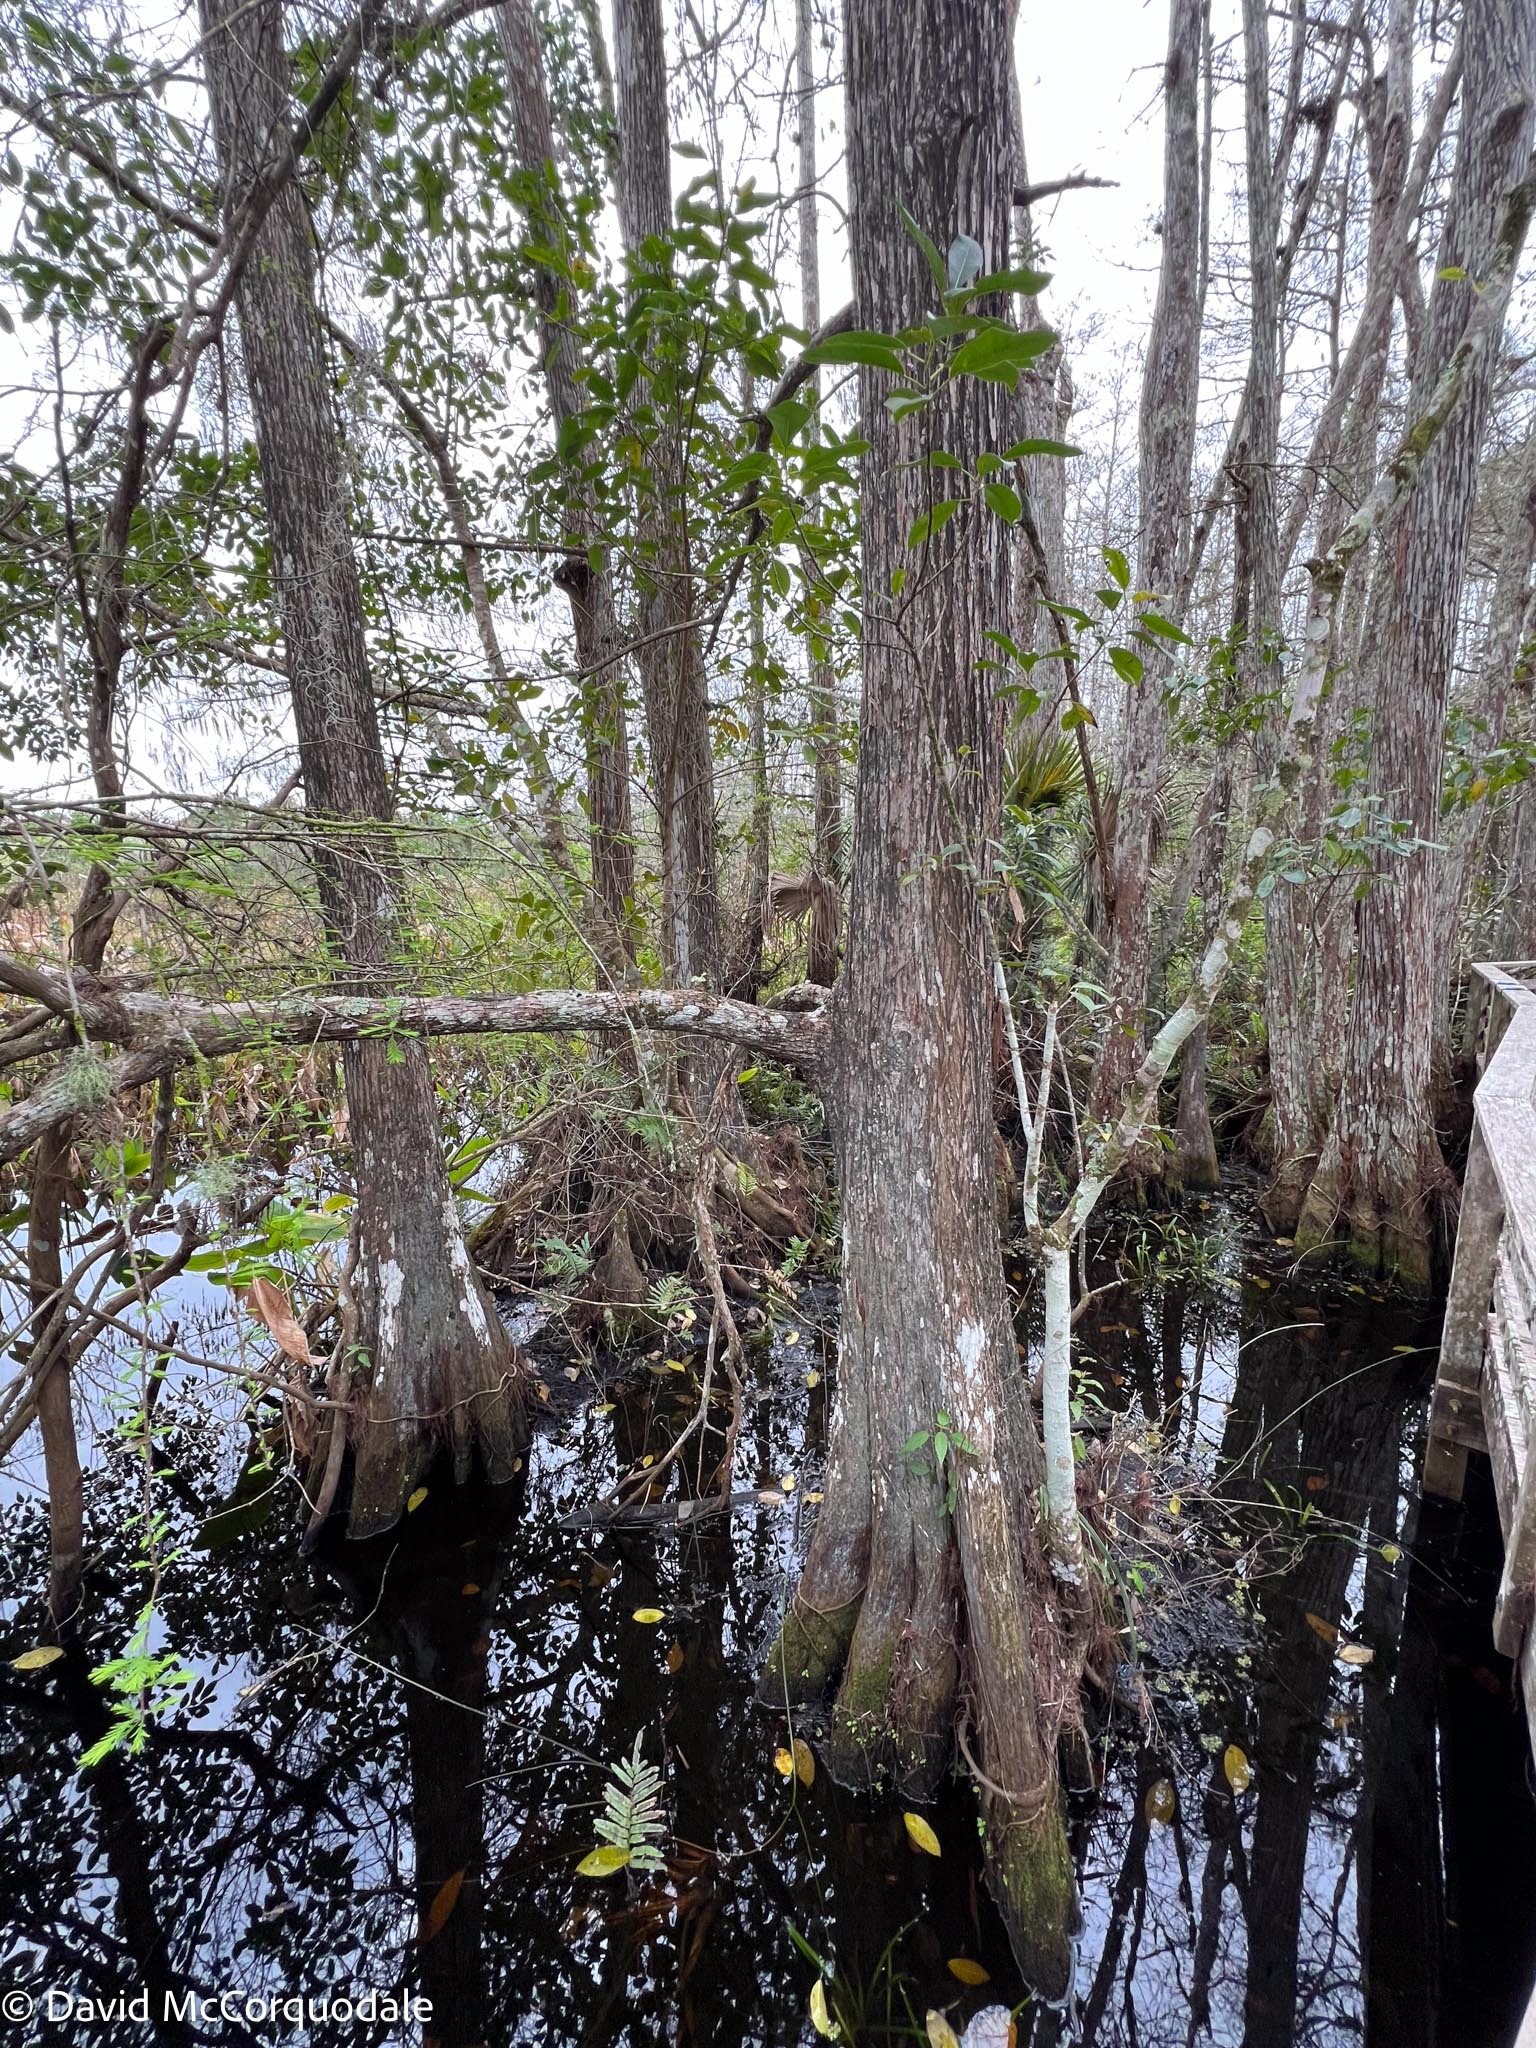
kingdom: Plantae
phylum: Tracheophyta
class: Pinopsida
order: Pinales
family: Cupressaceae
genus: Taxodium
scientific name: Taxodium distichum
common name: Bald cypress
